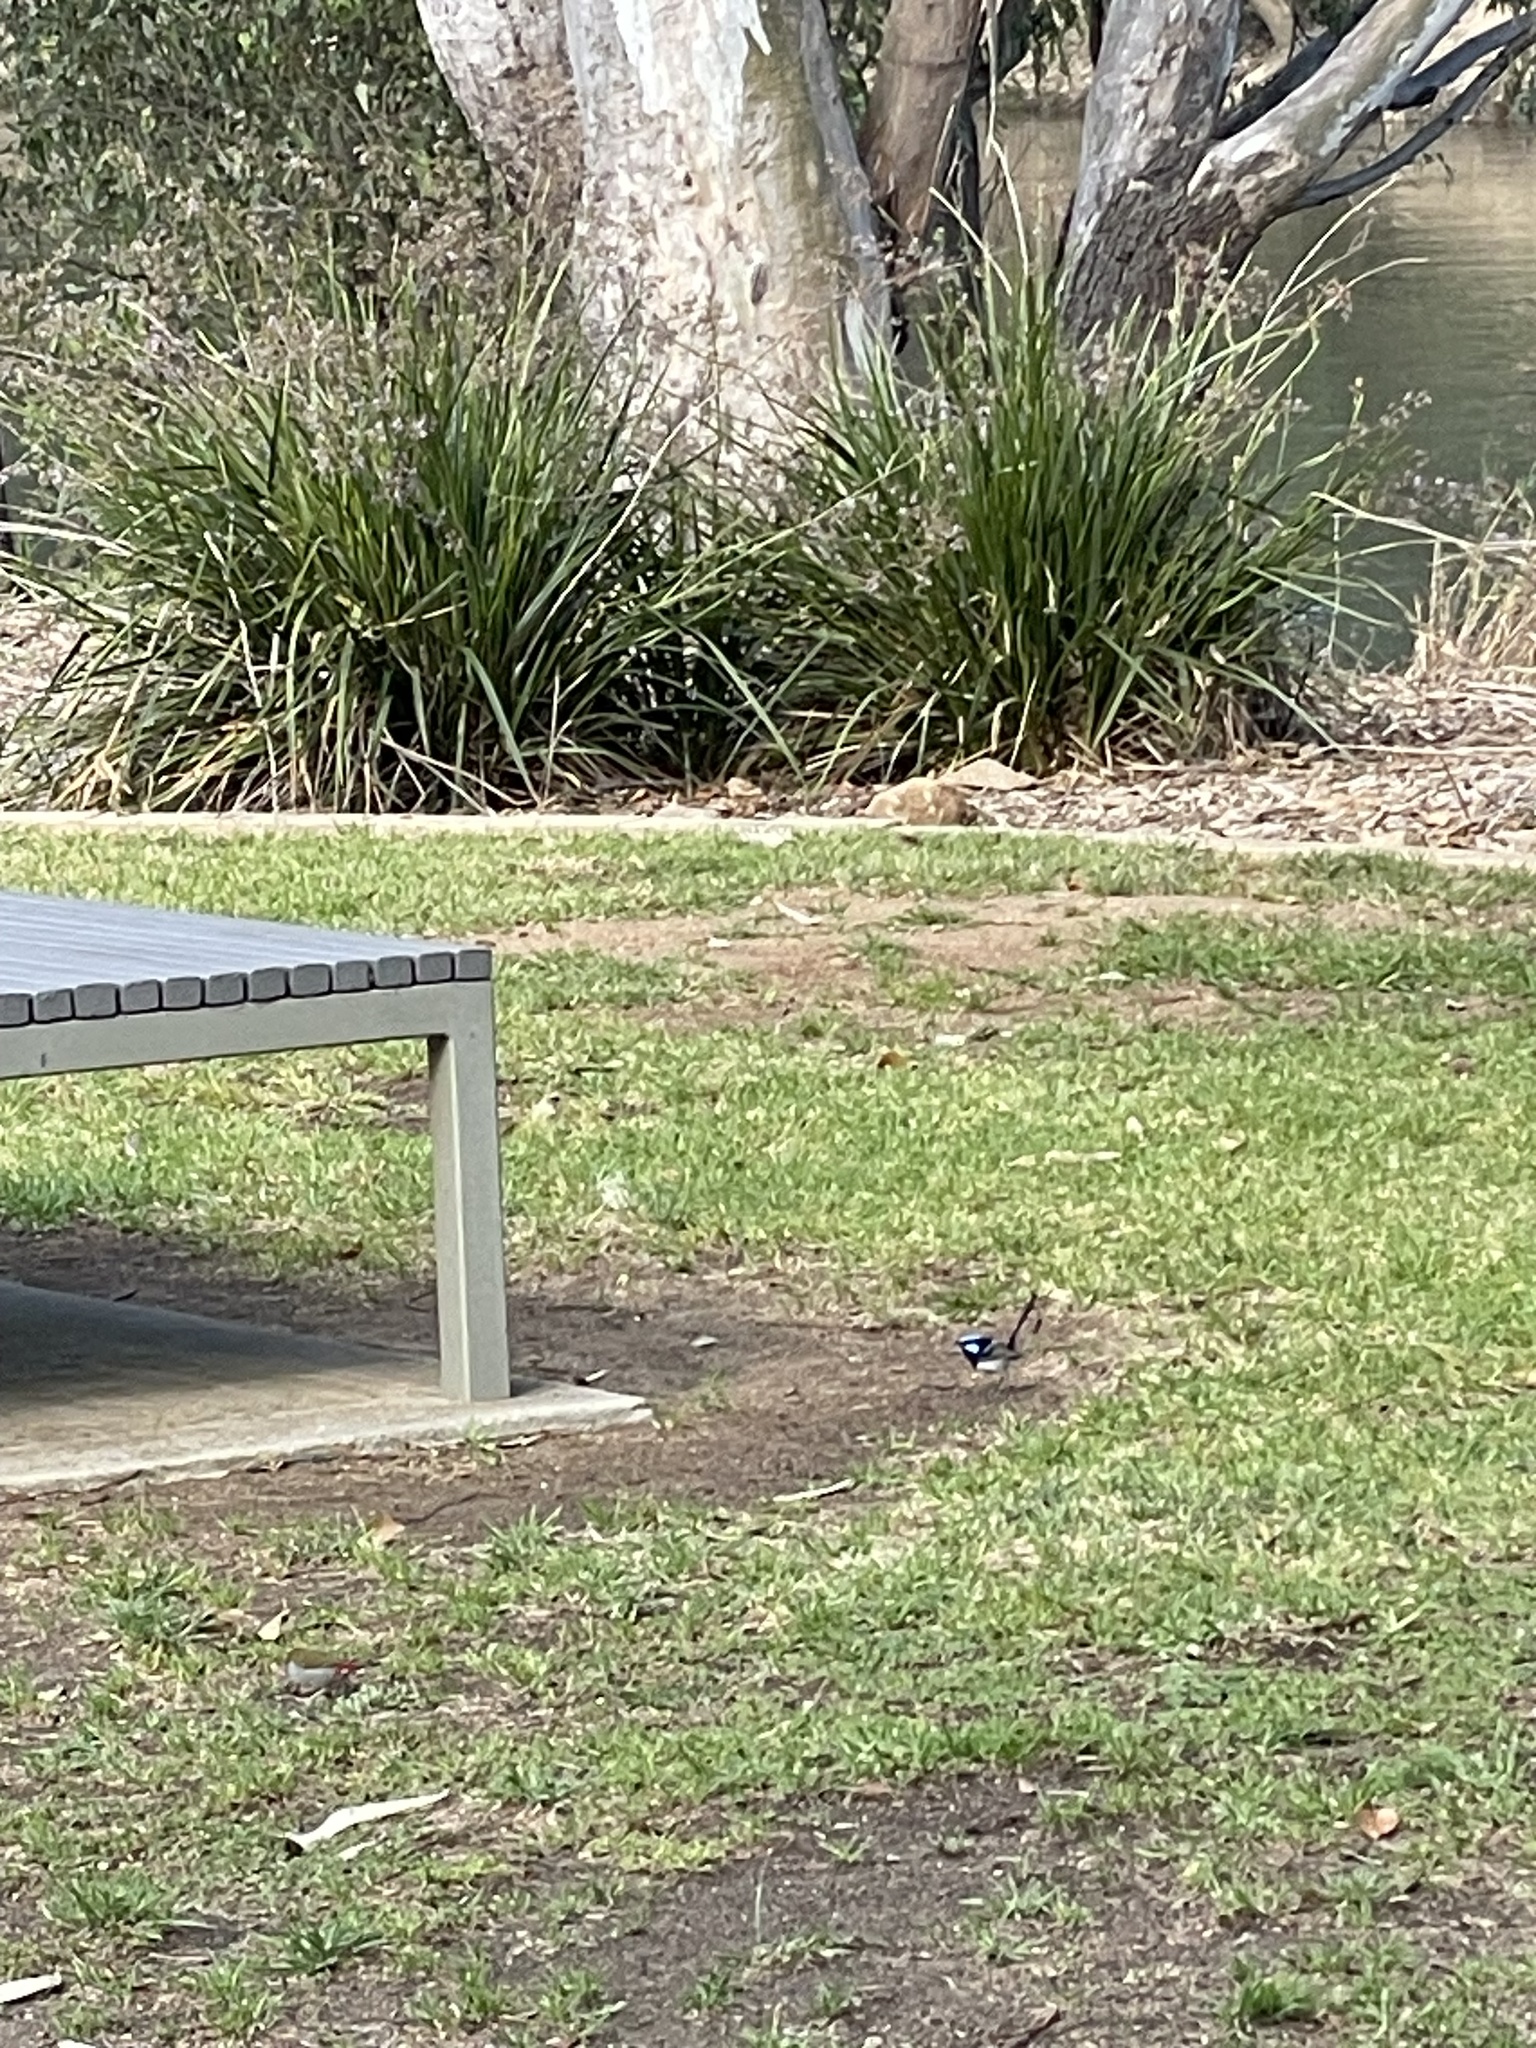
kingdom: Animalia
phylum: Chordata
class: Aves
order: Passeriformes
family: Maluridae
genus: Malurus
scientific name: Malurus cyaneus
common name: Superb fairywren
